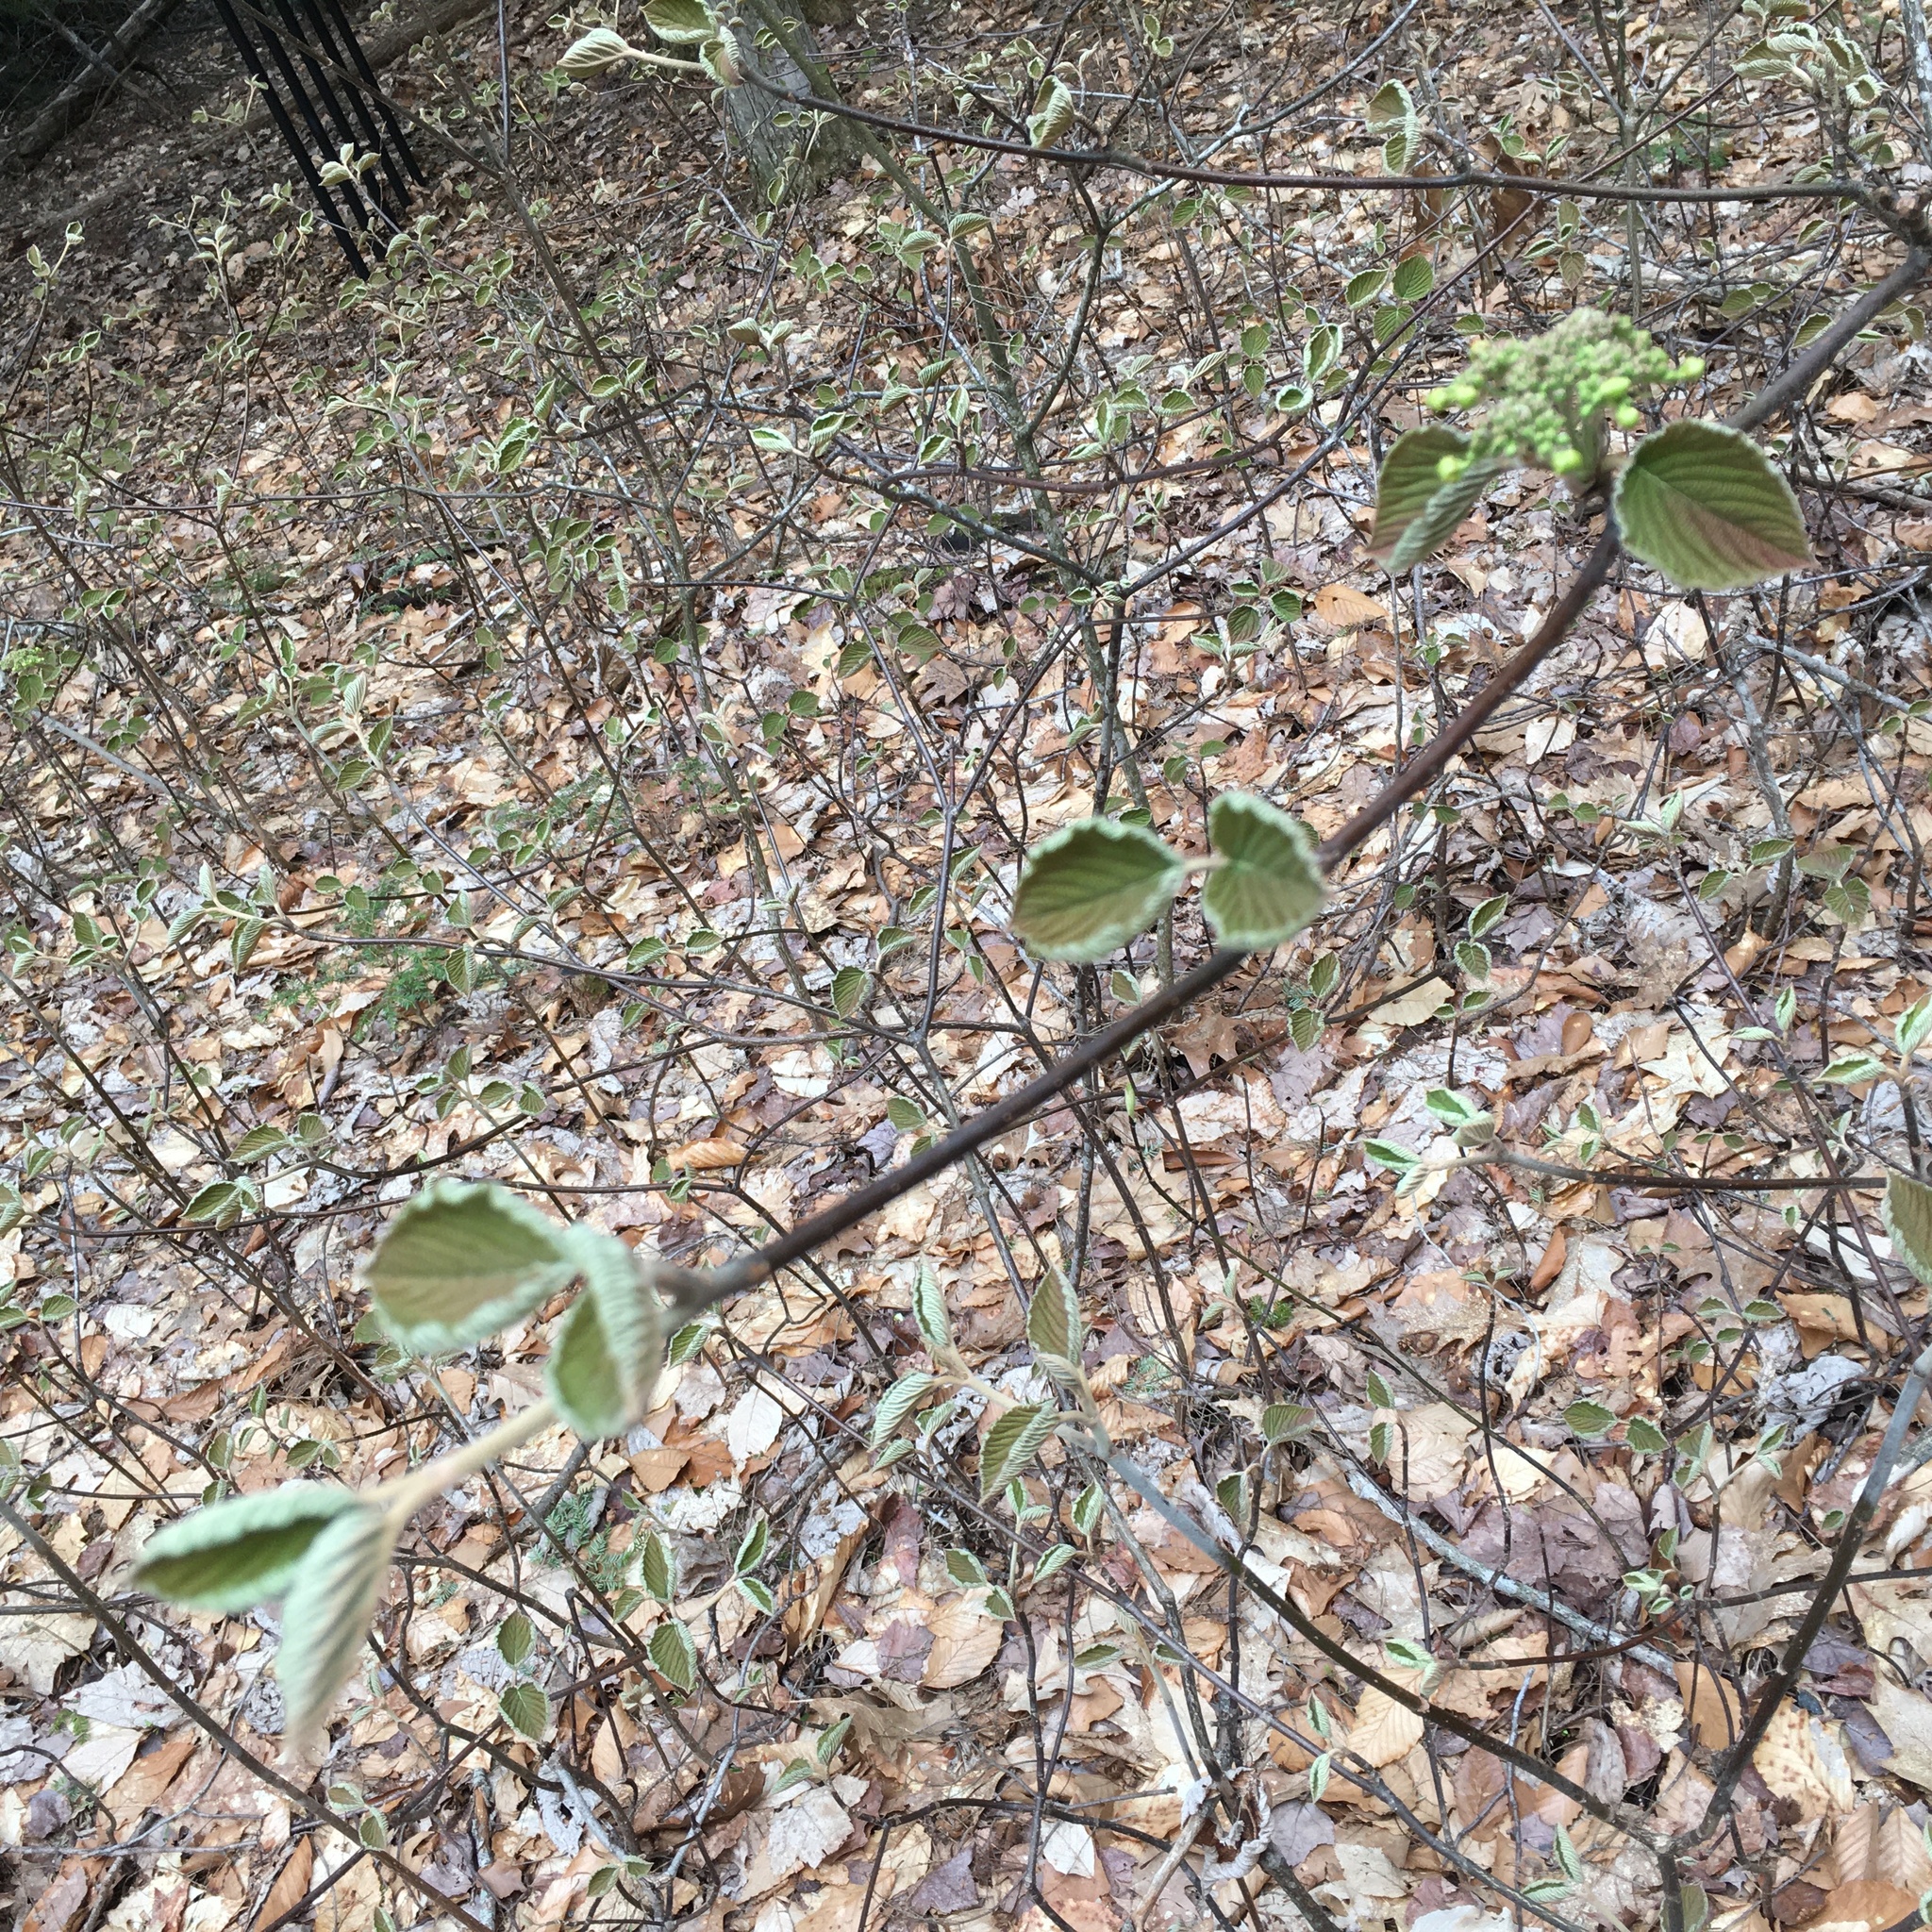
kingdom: Plantae
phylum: Tracheophyta
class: Magnoliopsida
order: Dipsacales
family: Viburnaceae
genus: Viburnum
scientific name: Viburnum lantanoides
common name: Hobblebush
